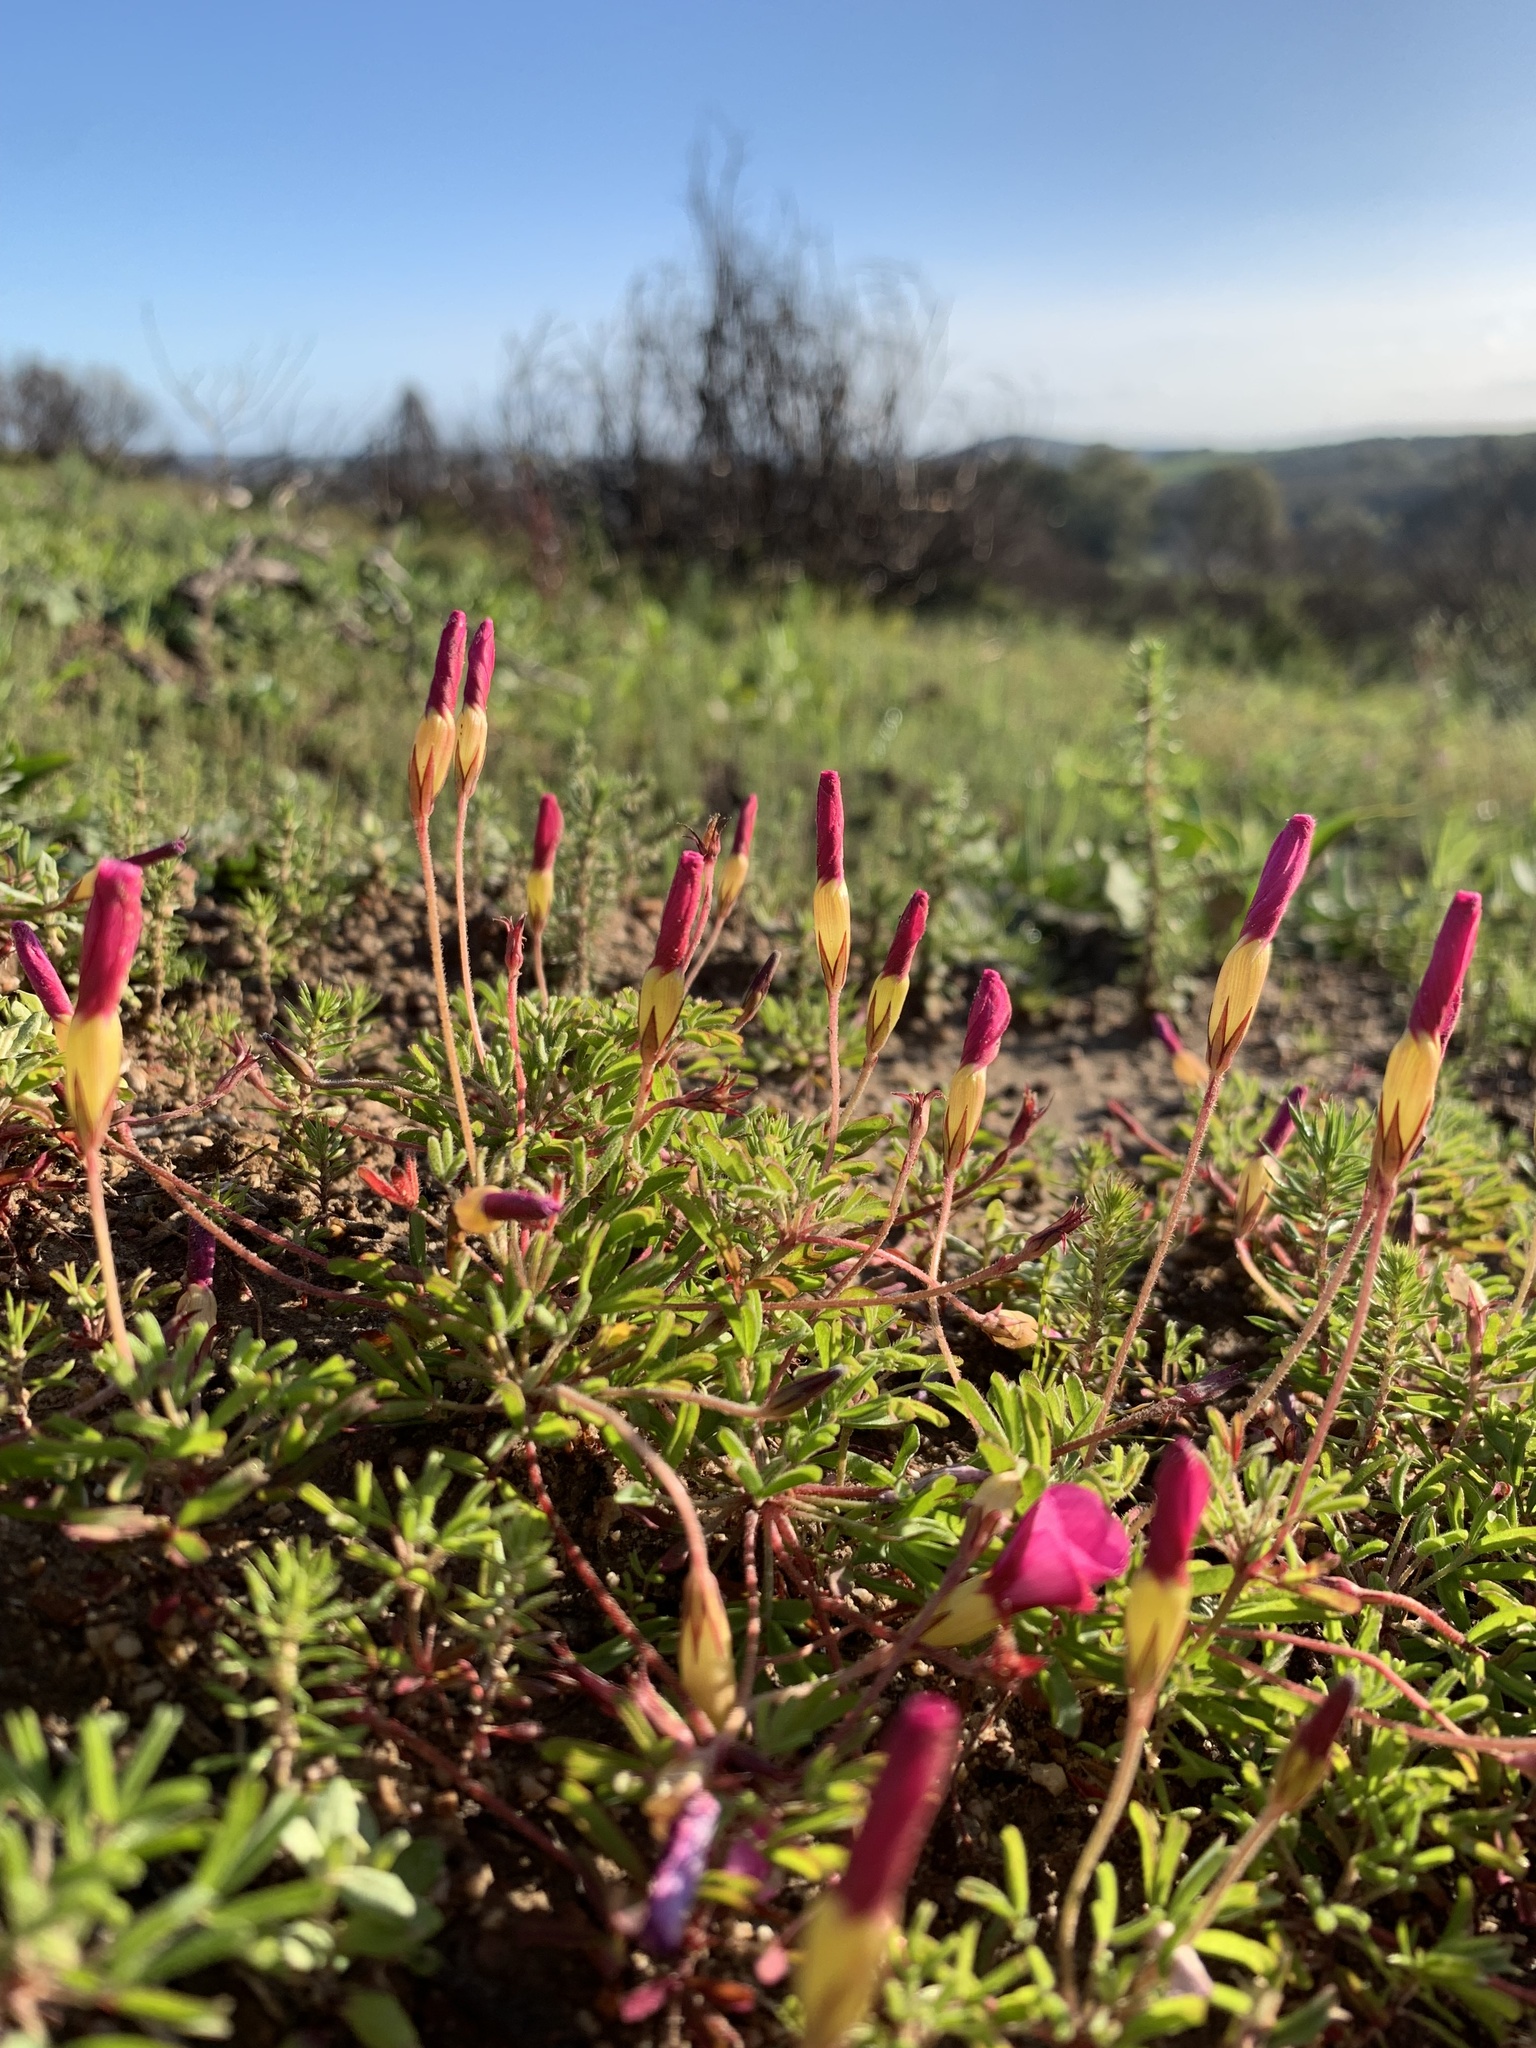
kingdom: Plantae
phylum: Tracheophyta
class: Magnoliopsida
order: Oxalidales
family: Oxalidaceae
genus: Oxalis
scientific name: Oxalis glabra
